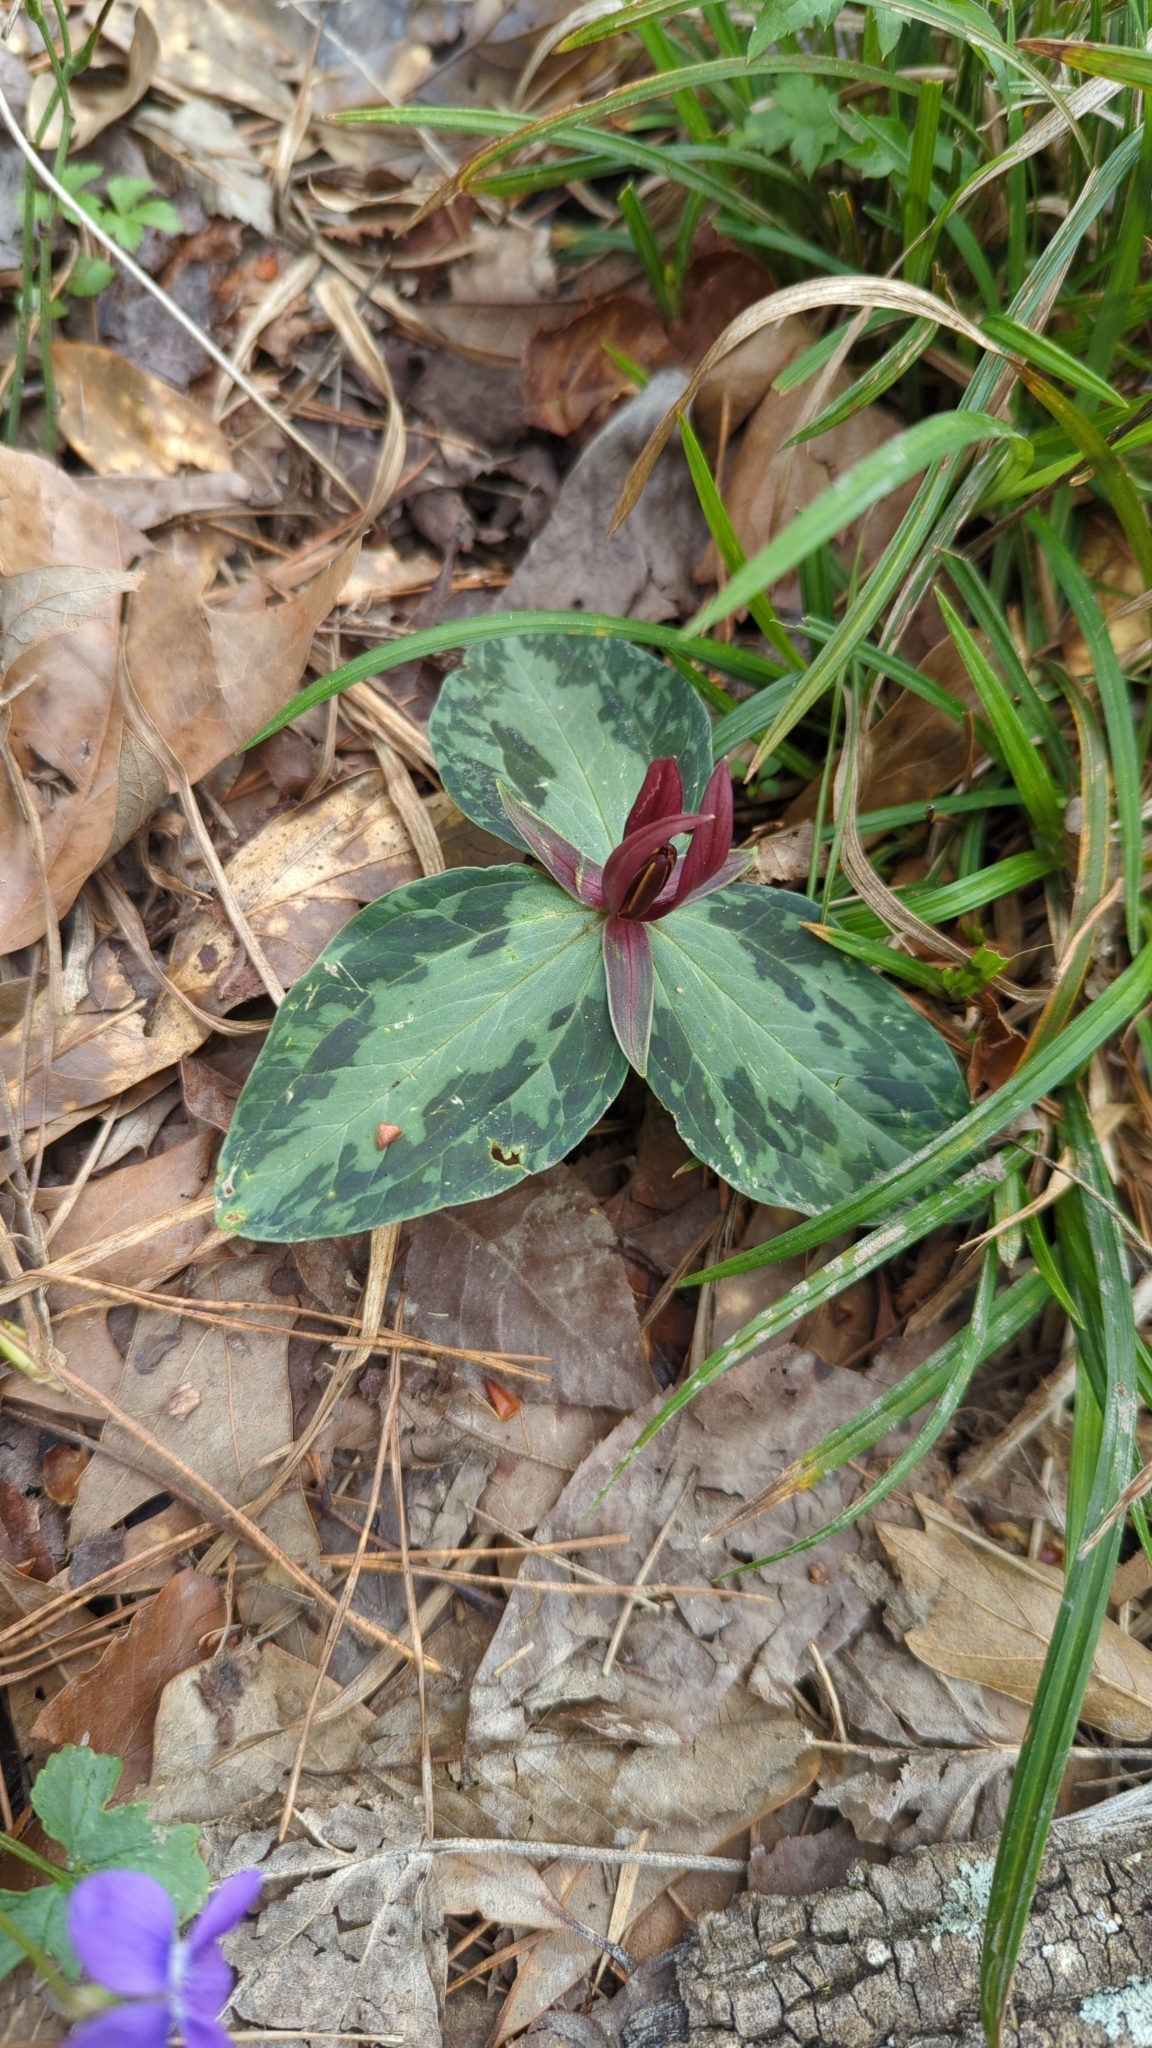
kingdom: Plantae
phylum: Tracheophyta
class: Liliopsida
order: Liliales
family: Melanthiaceae
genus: Trillium
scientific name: Trillium foetidissimum
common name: Mississippi river trillium
